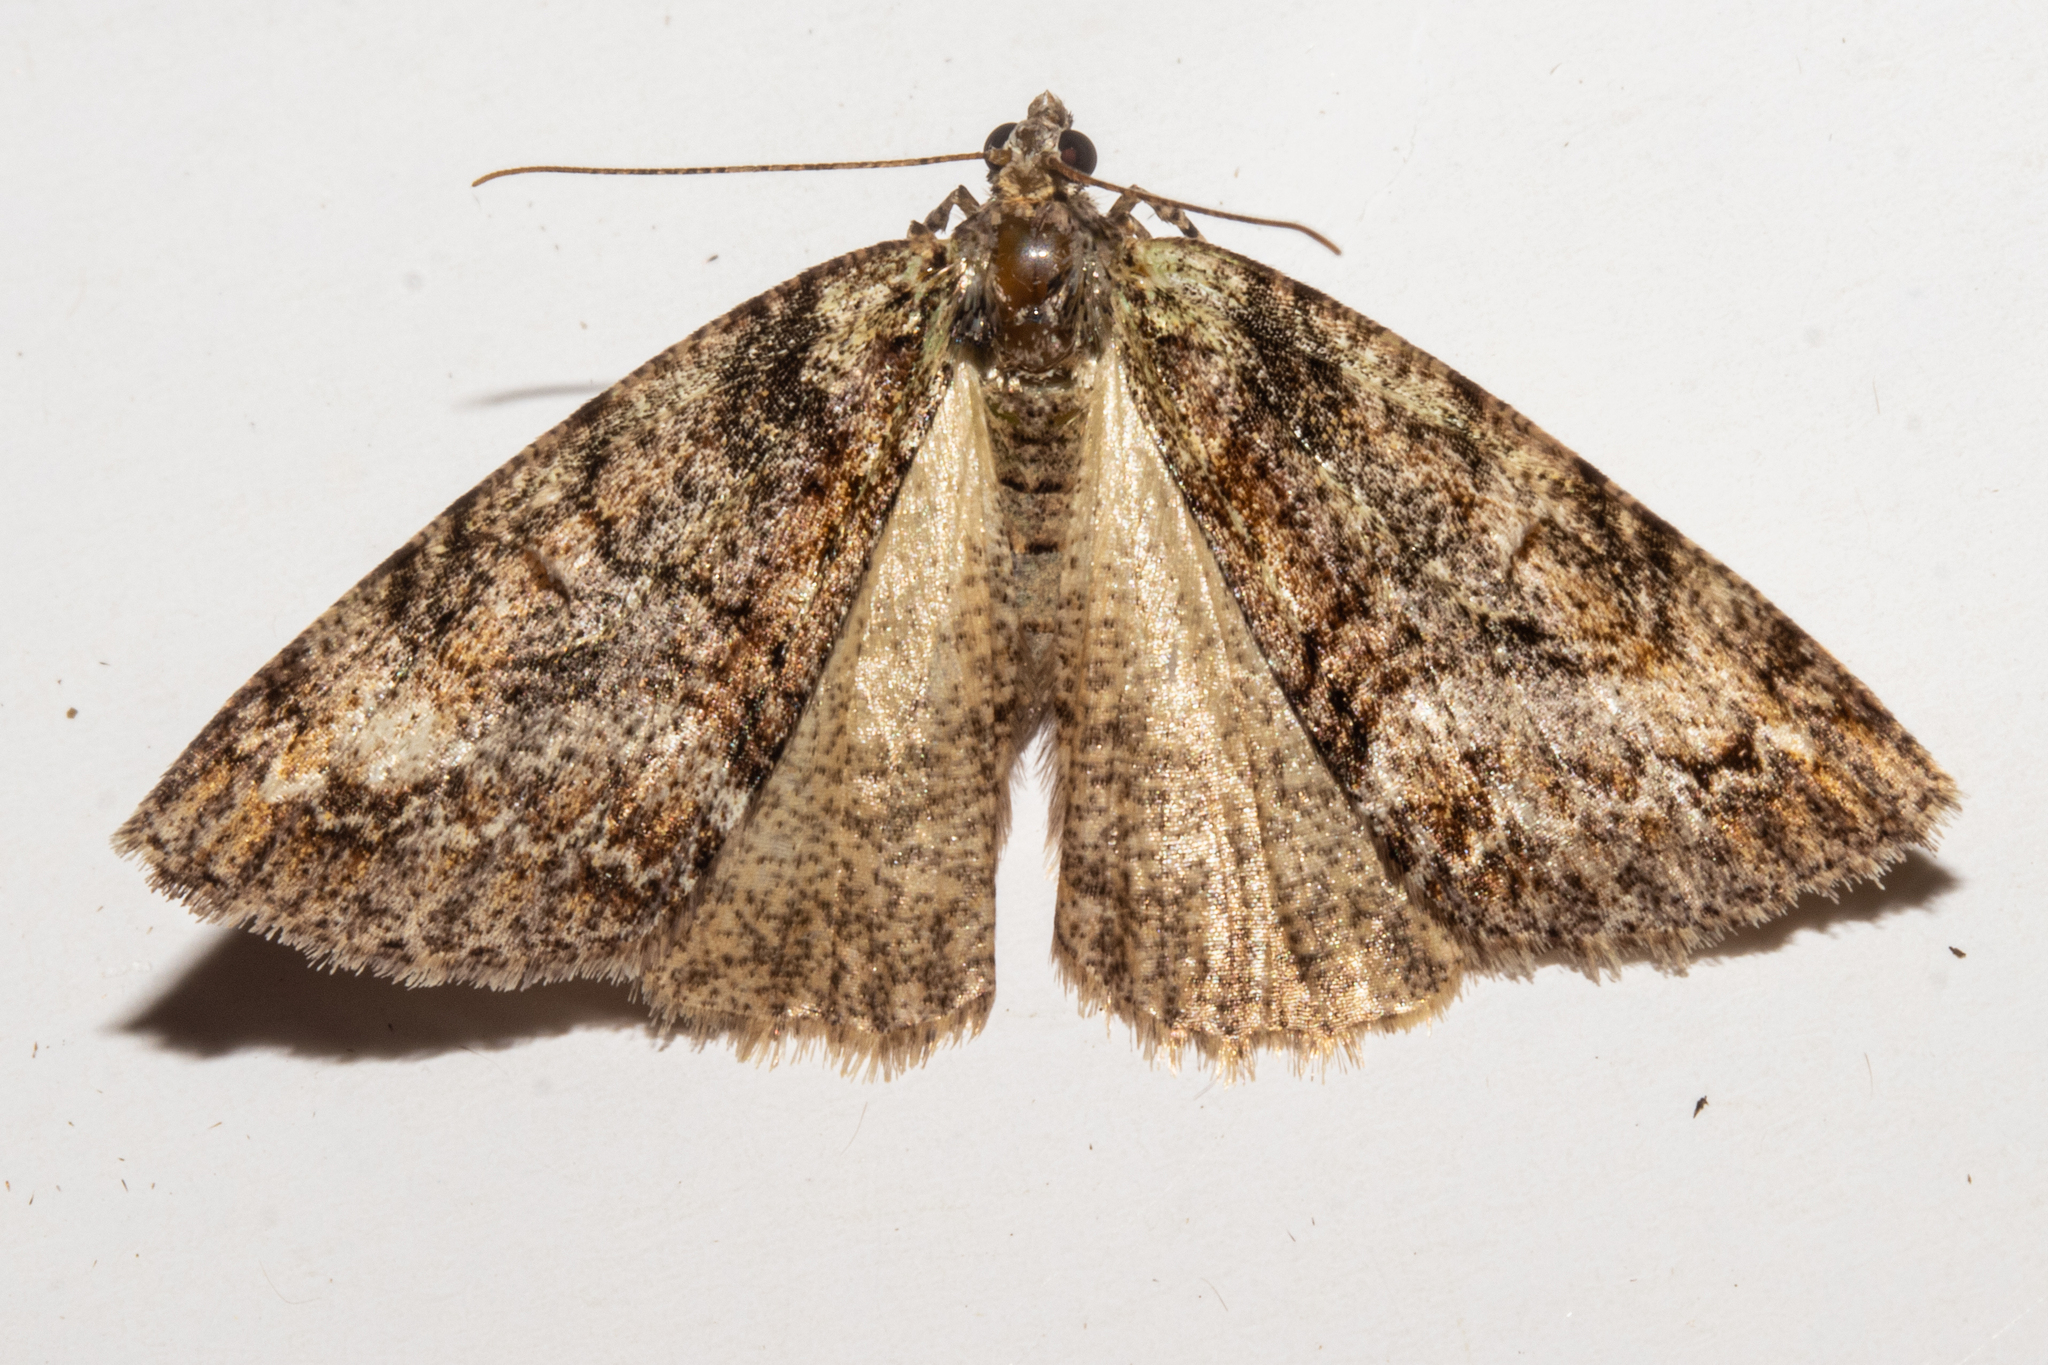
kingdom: Animalia
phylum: Arthropoda
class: Insecta
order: Lepidoptera
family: Geometridae
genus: Pseudocoremia
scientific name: Pseudocoremia suavis
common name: Common forest looper
